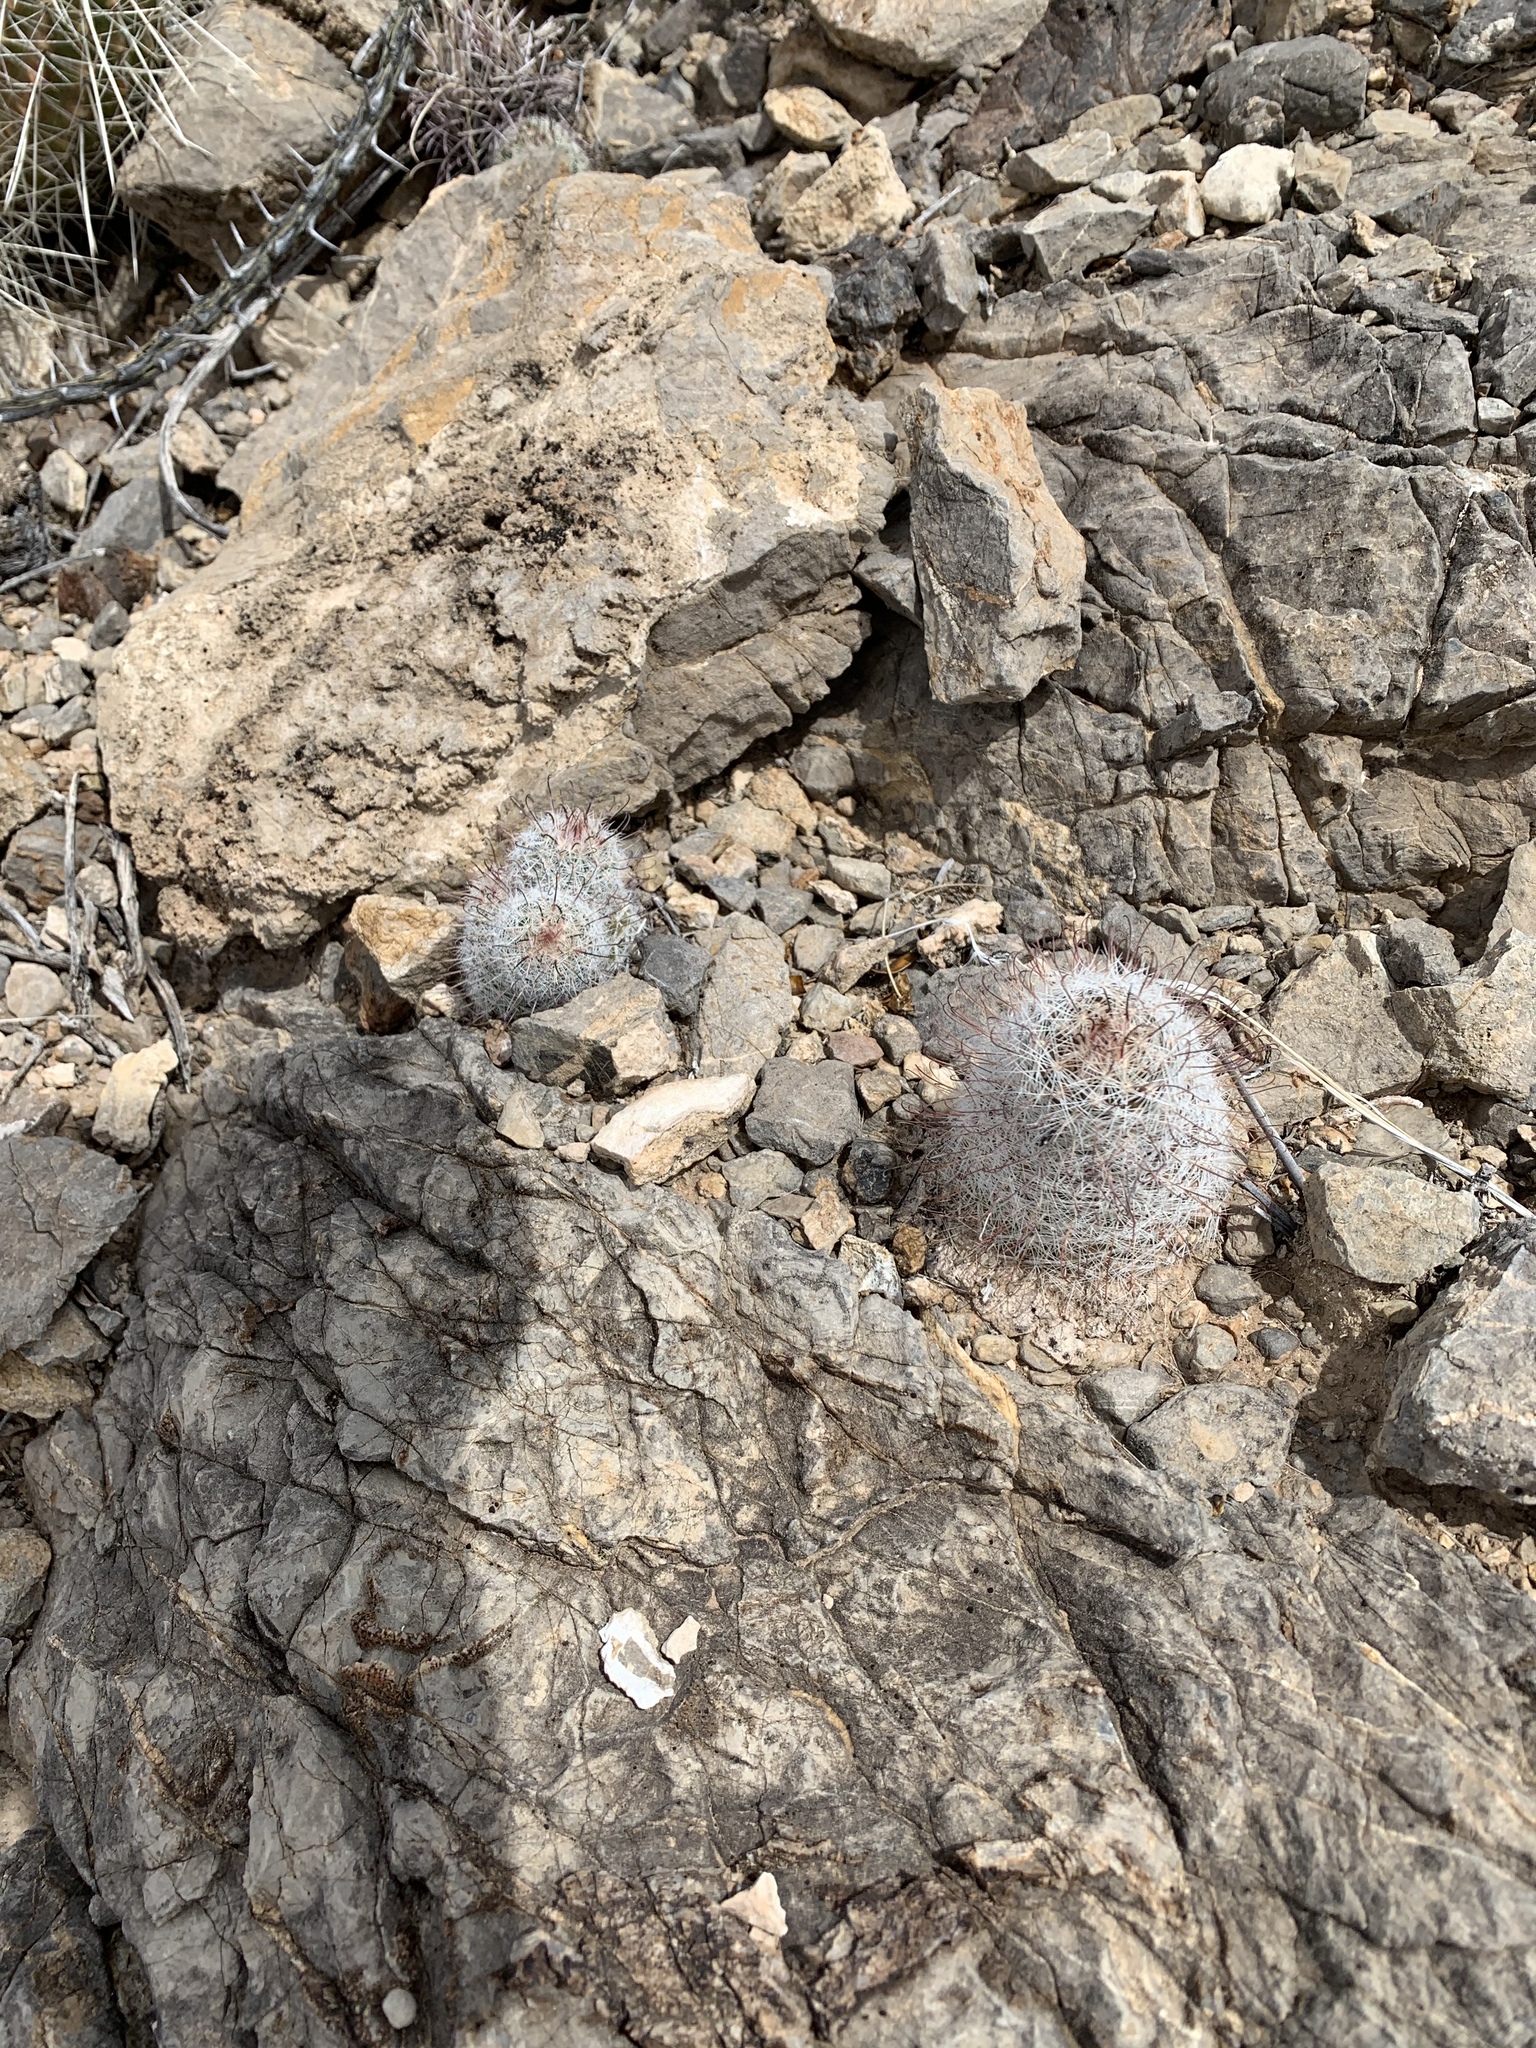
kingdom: Plantae
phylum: Tracheophyta
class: Magnoliopsida
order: Caryophyllales
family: Cactaceae
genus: Cochemiea
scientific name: Cochemiea grahamii
